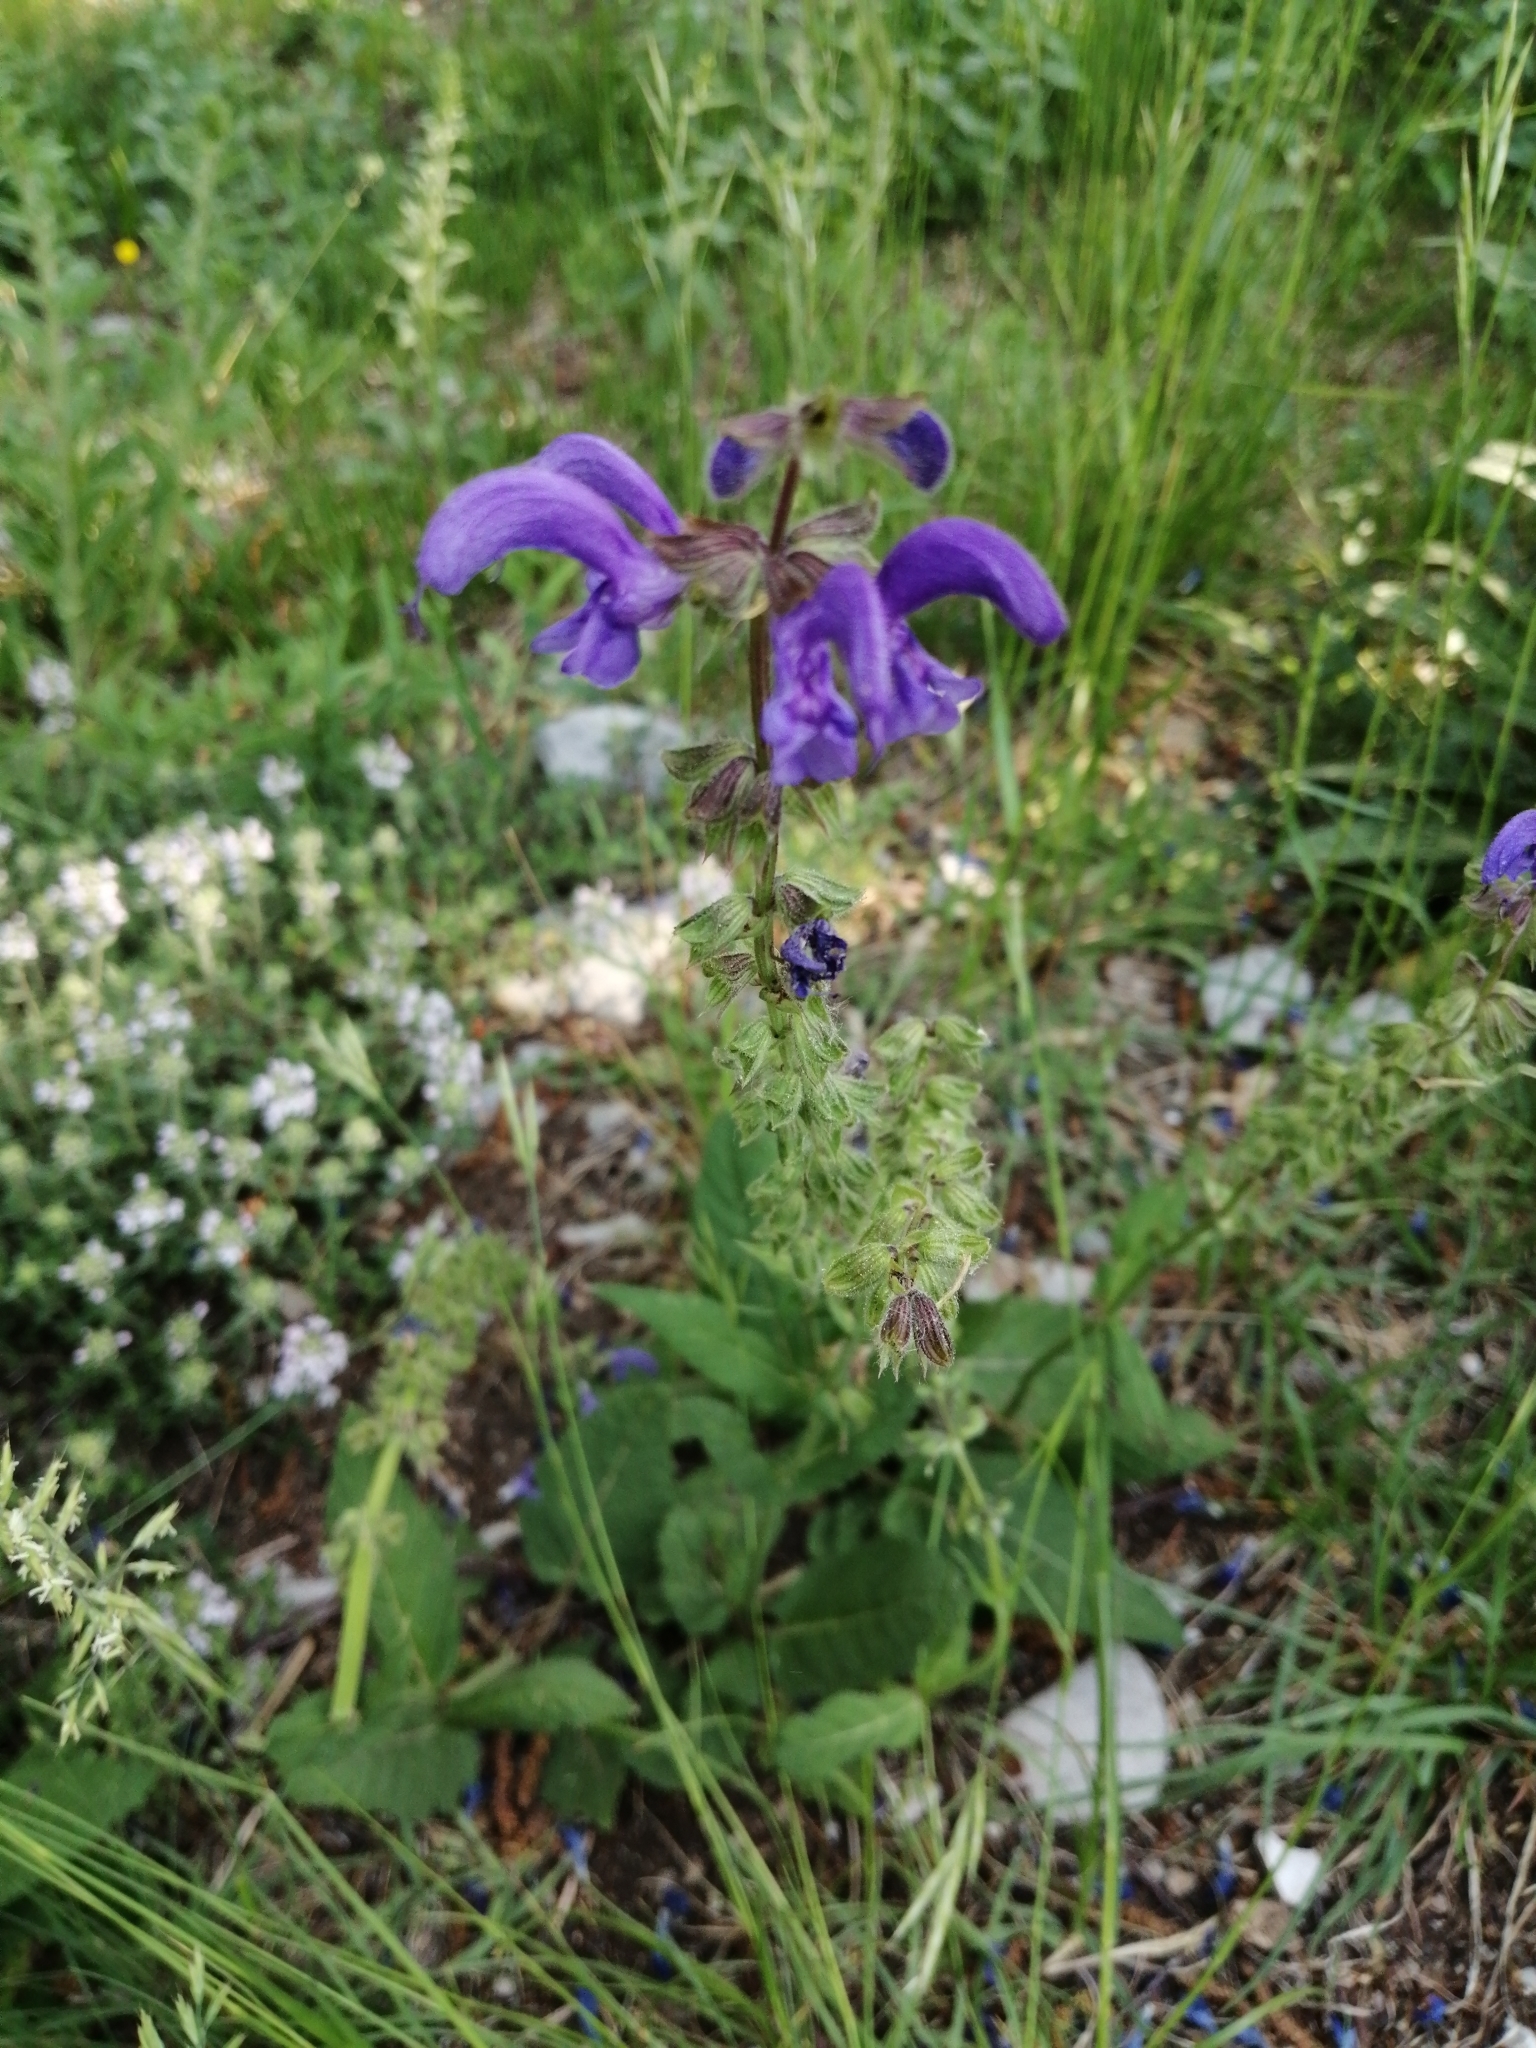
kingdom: Plantae
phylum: Tracheophyta
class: Magnoliopsida
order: Lamiales
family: Lamiaceae
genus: Salvia
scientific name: Salvia pratensis
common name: Meadow sage
